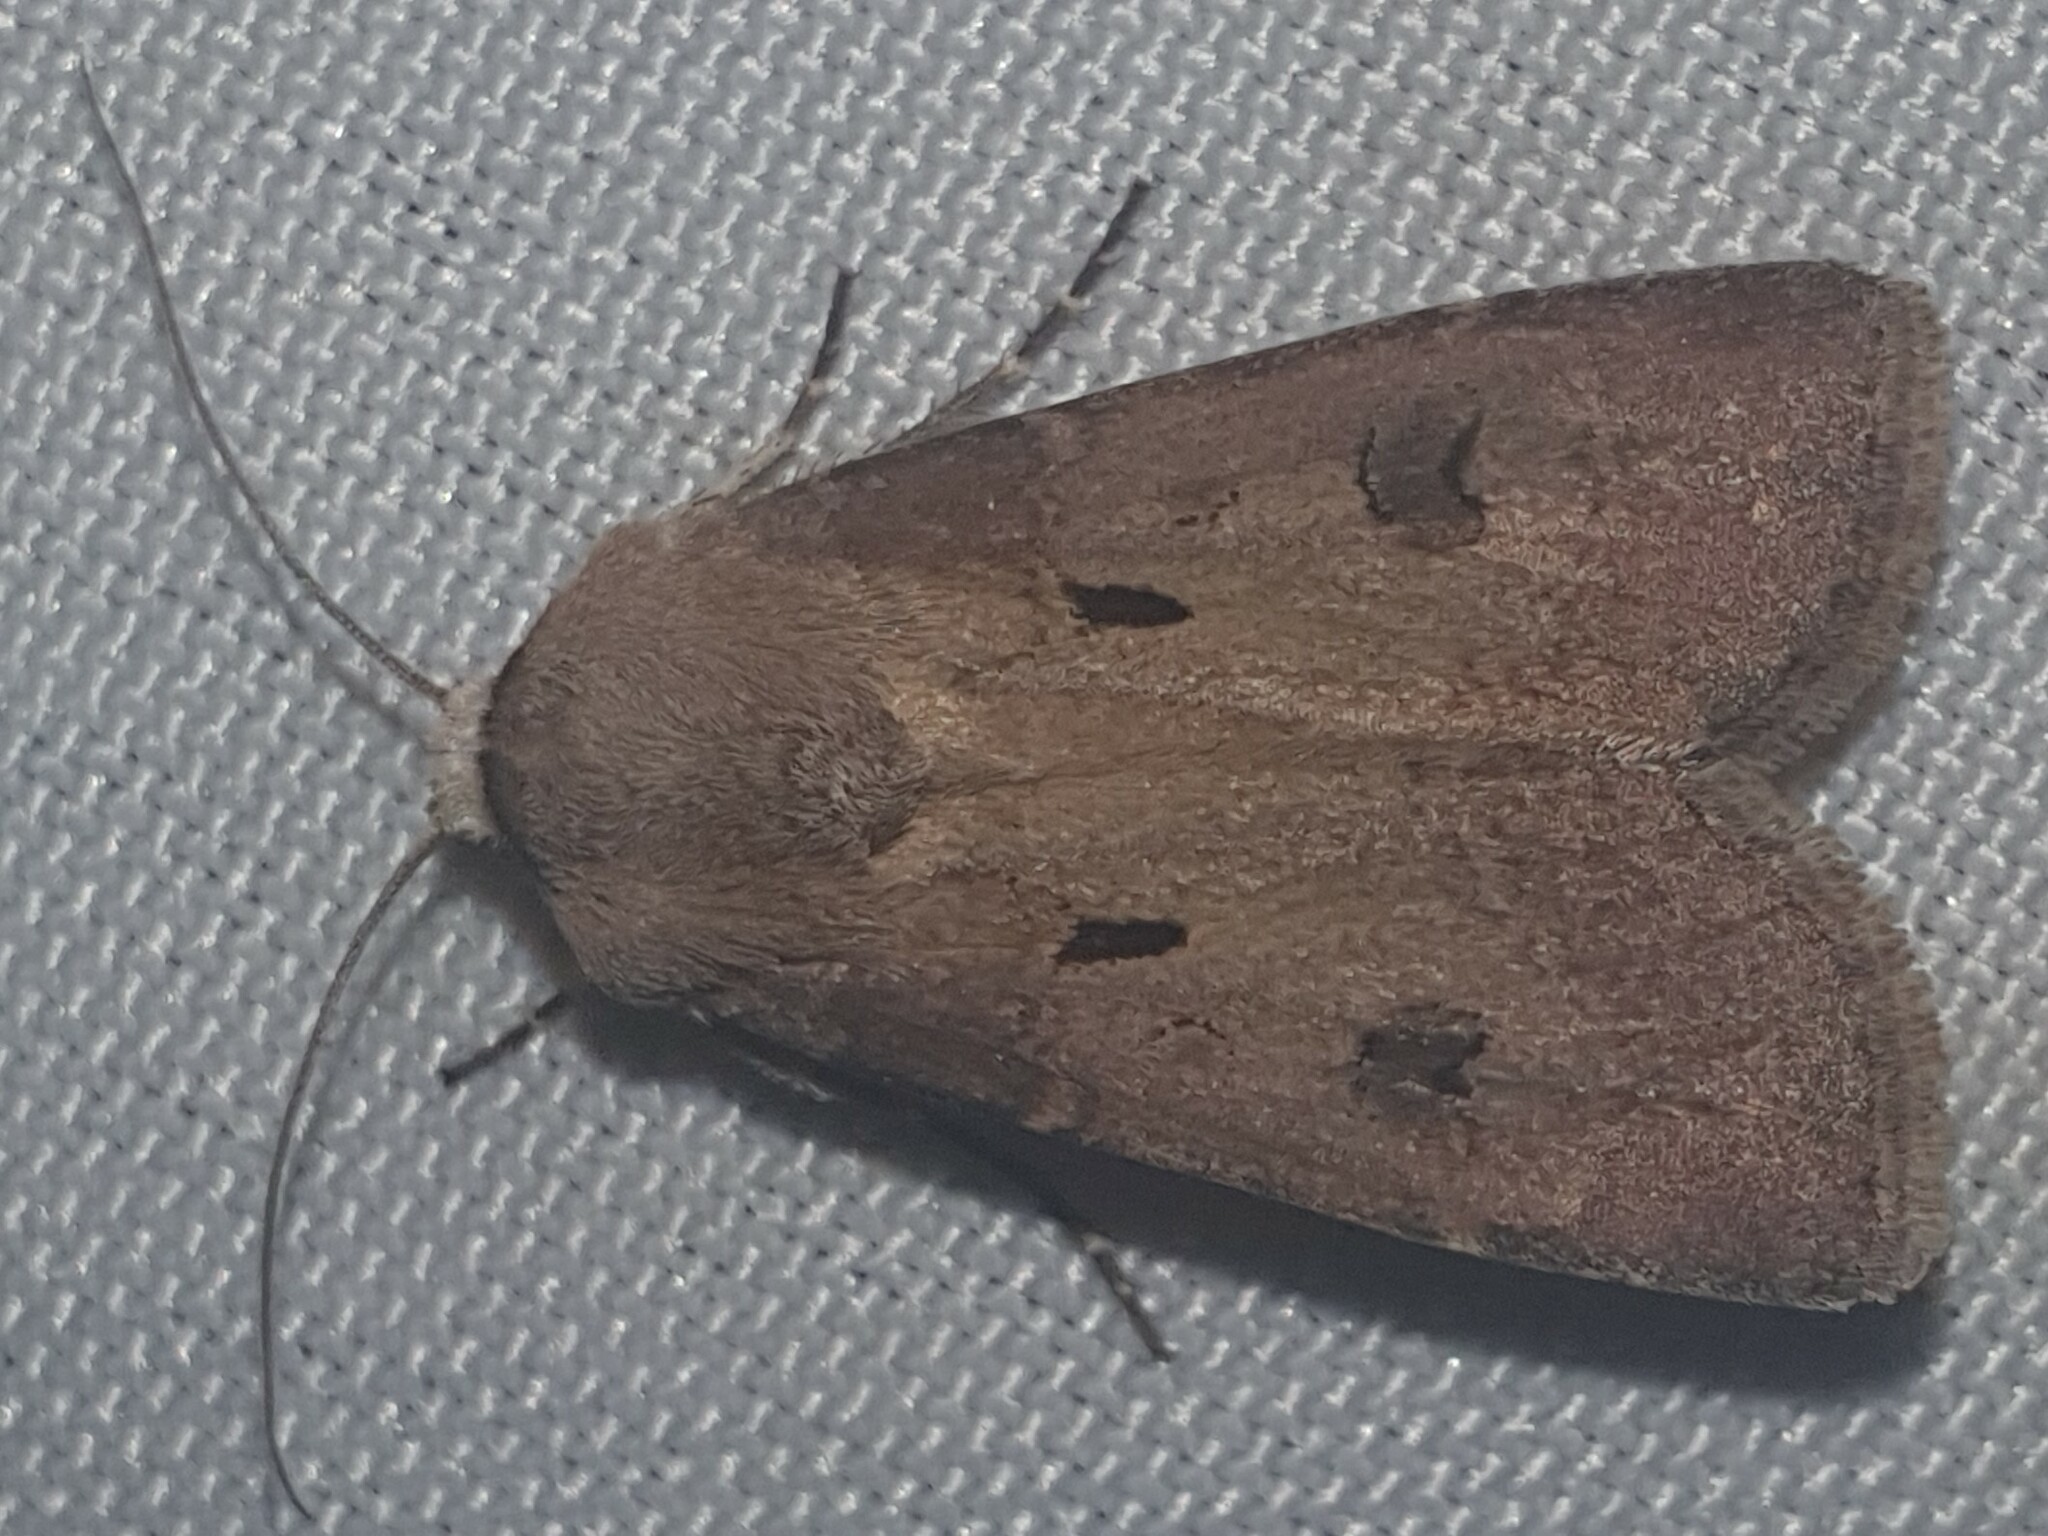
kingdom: Animalia
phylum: Arthropoda
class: Insecta
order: Lepidoptera
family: Noctuidae
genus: Agrotis
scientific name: Agrotis exclamationis
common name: Heart and dart
